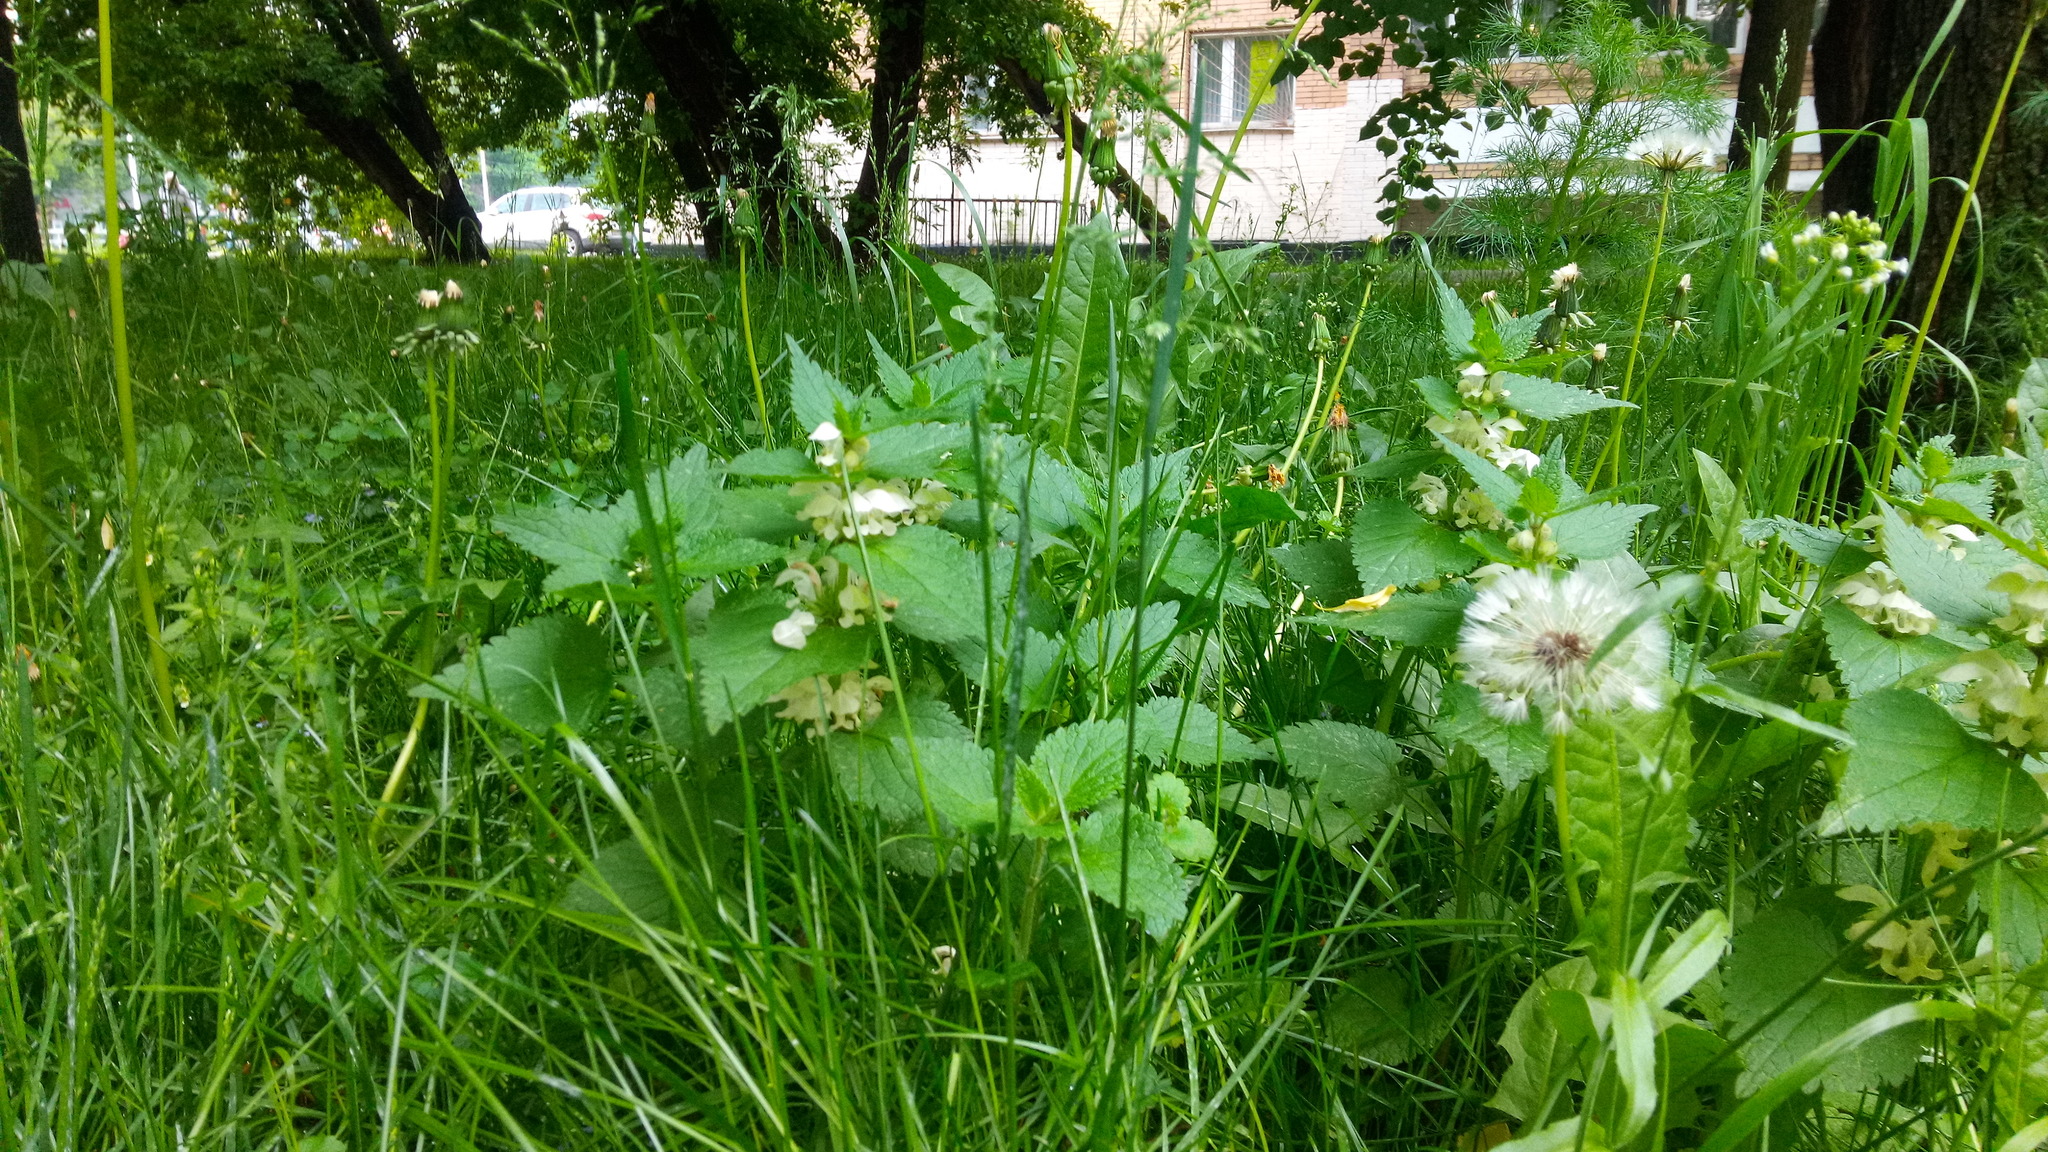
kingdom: Plantae
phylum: Tracheophyta
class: Magnoliopsida
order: Lamiales
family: Lamiaceae
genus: Lamium
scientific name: Lamium album
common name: White dead-nettle
